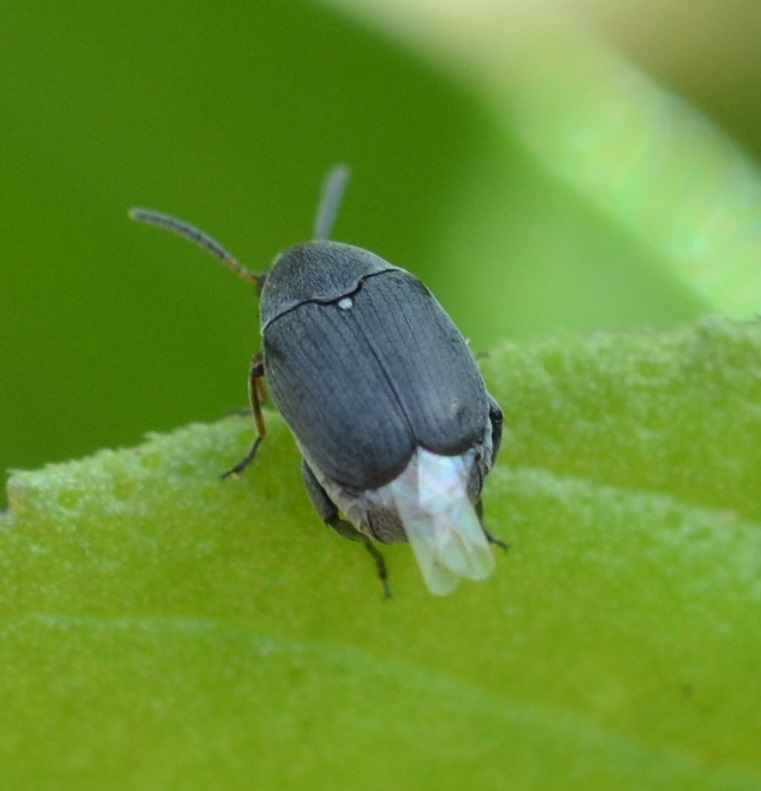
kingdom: Animalia
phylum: Arthropoda
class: Insecta
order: Coleoptera
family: Chrysomelidae
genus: Stator
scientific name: Stator pruininus
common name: Leaf beetle
